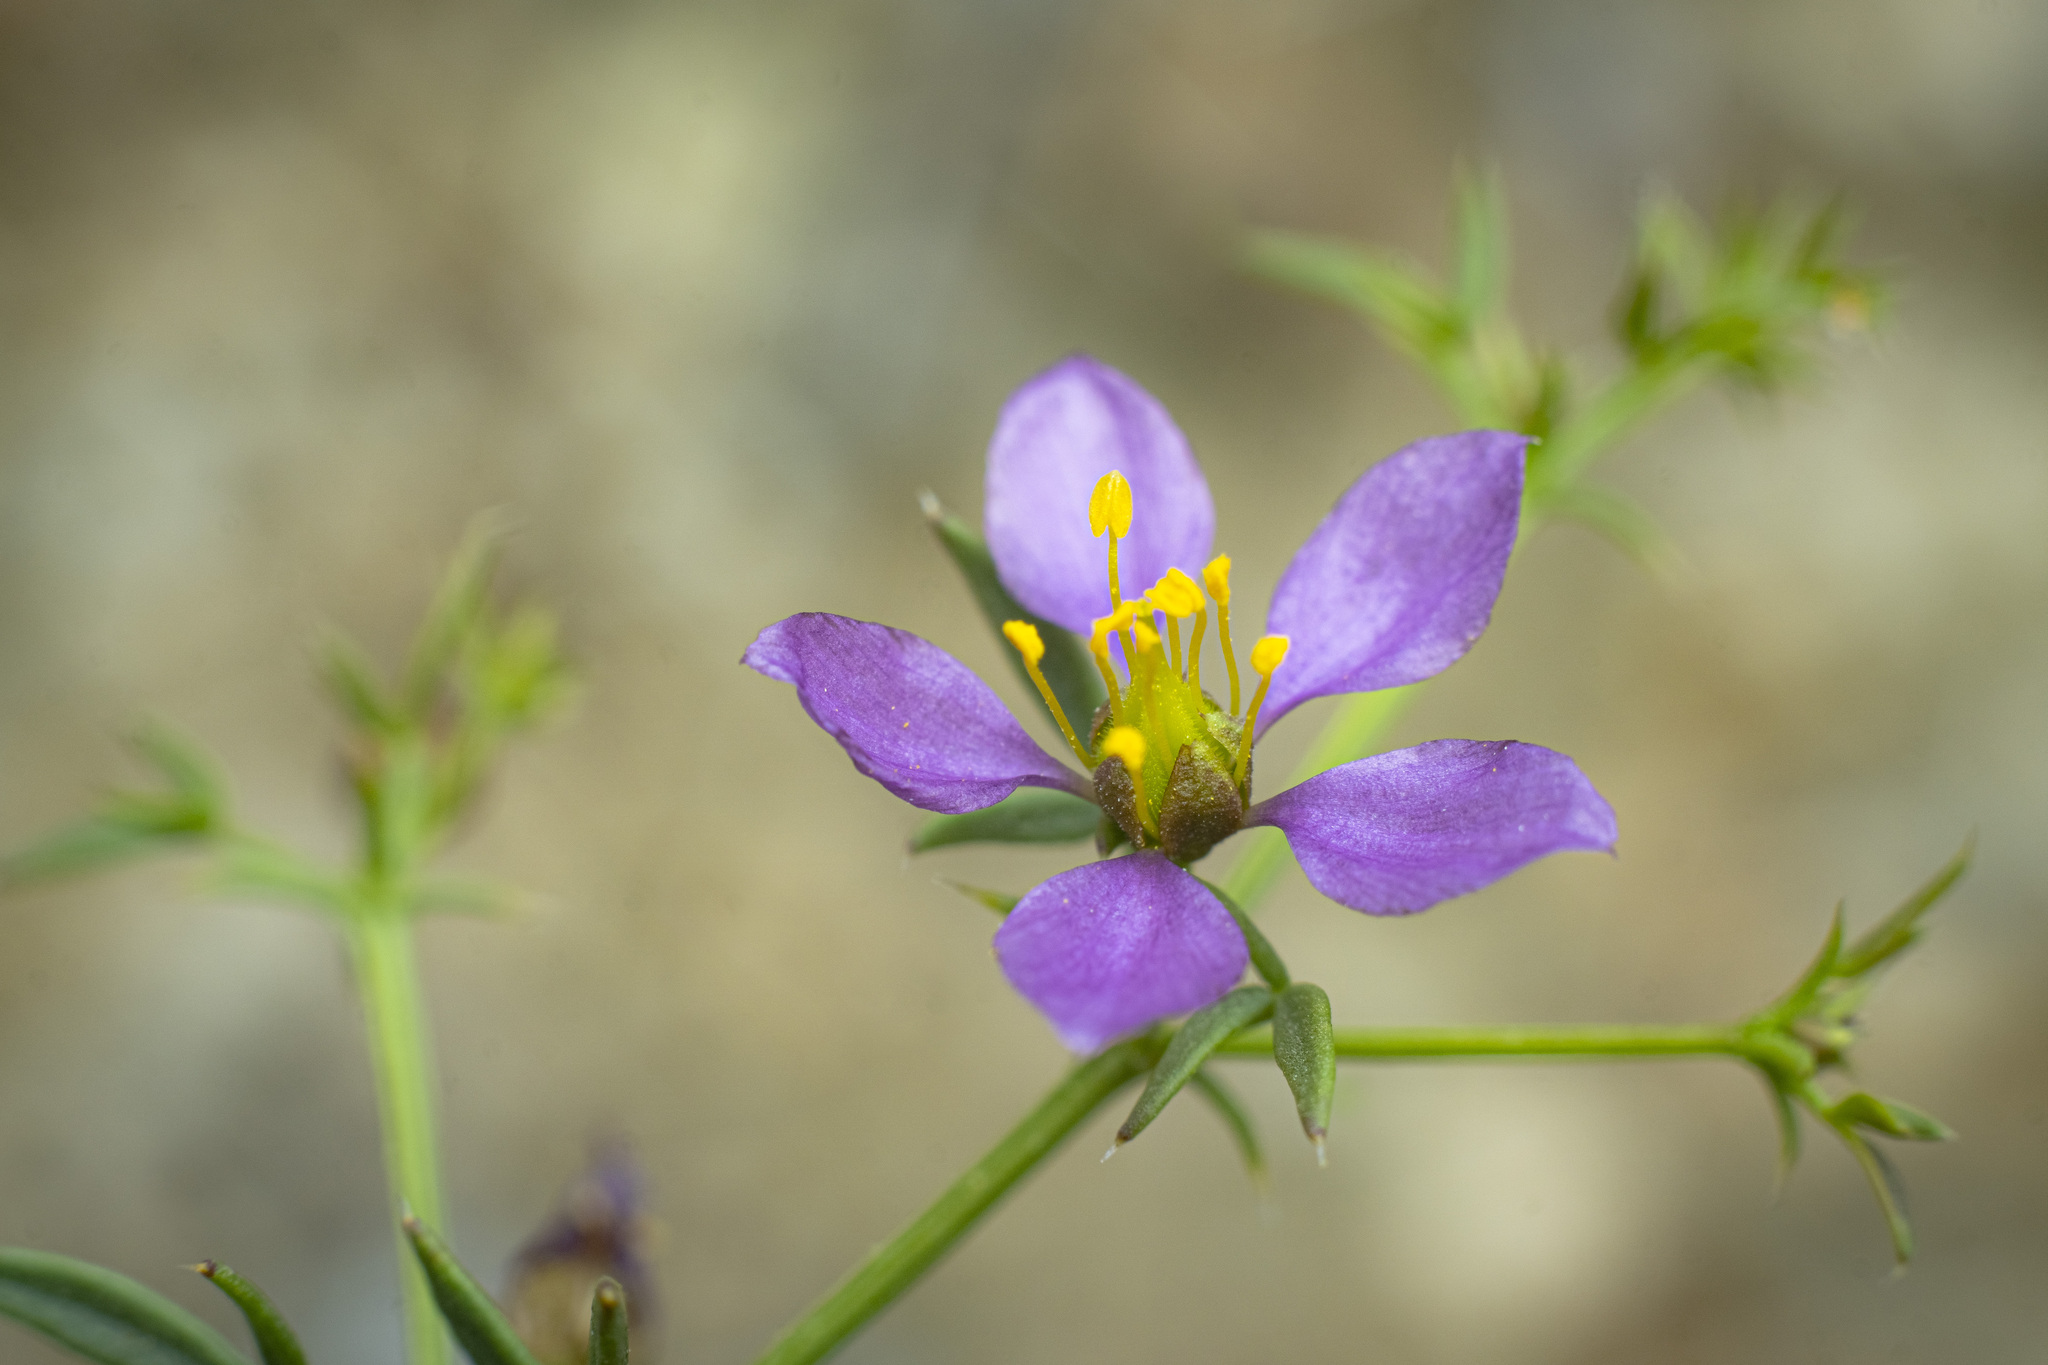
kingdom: Plantae
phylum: Tracheophyta
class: Magnoliopsida
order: Zygophyllales
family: Zygophyllaceae
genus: Fagonia
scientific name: Fagonia laevis
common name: California fagonbush
